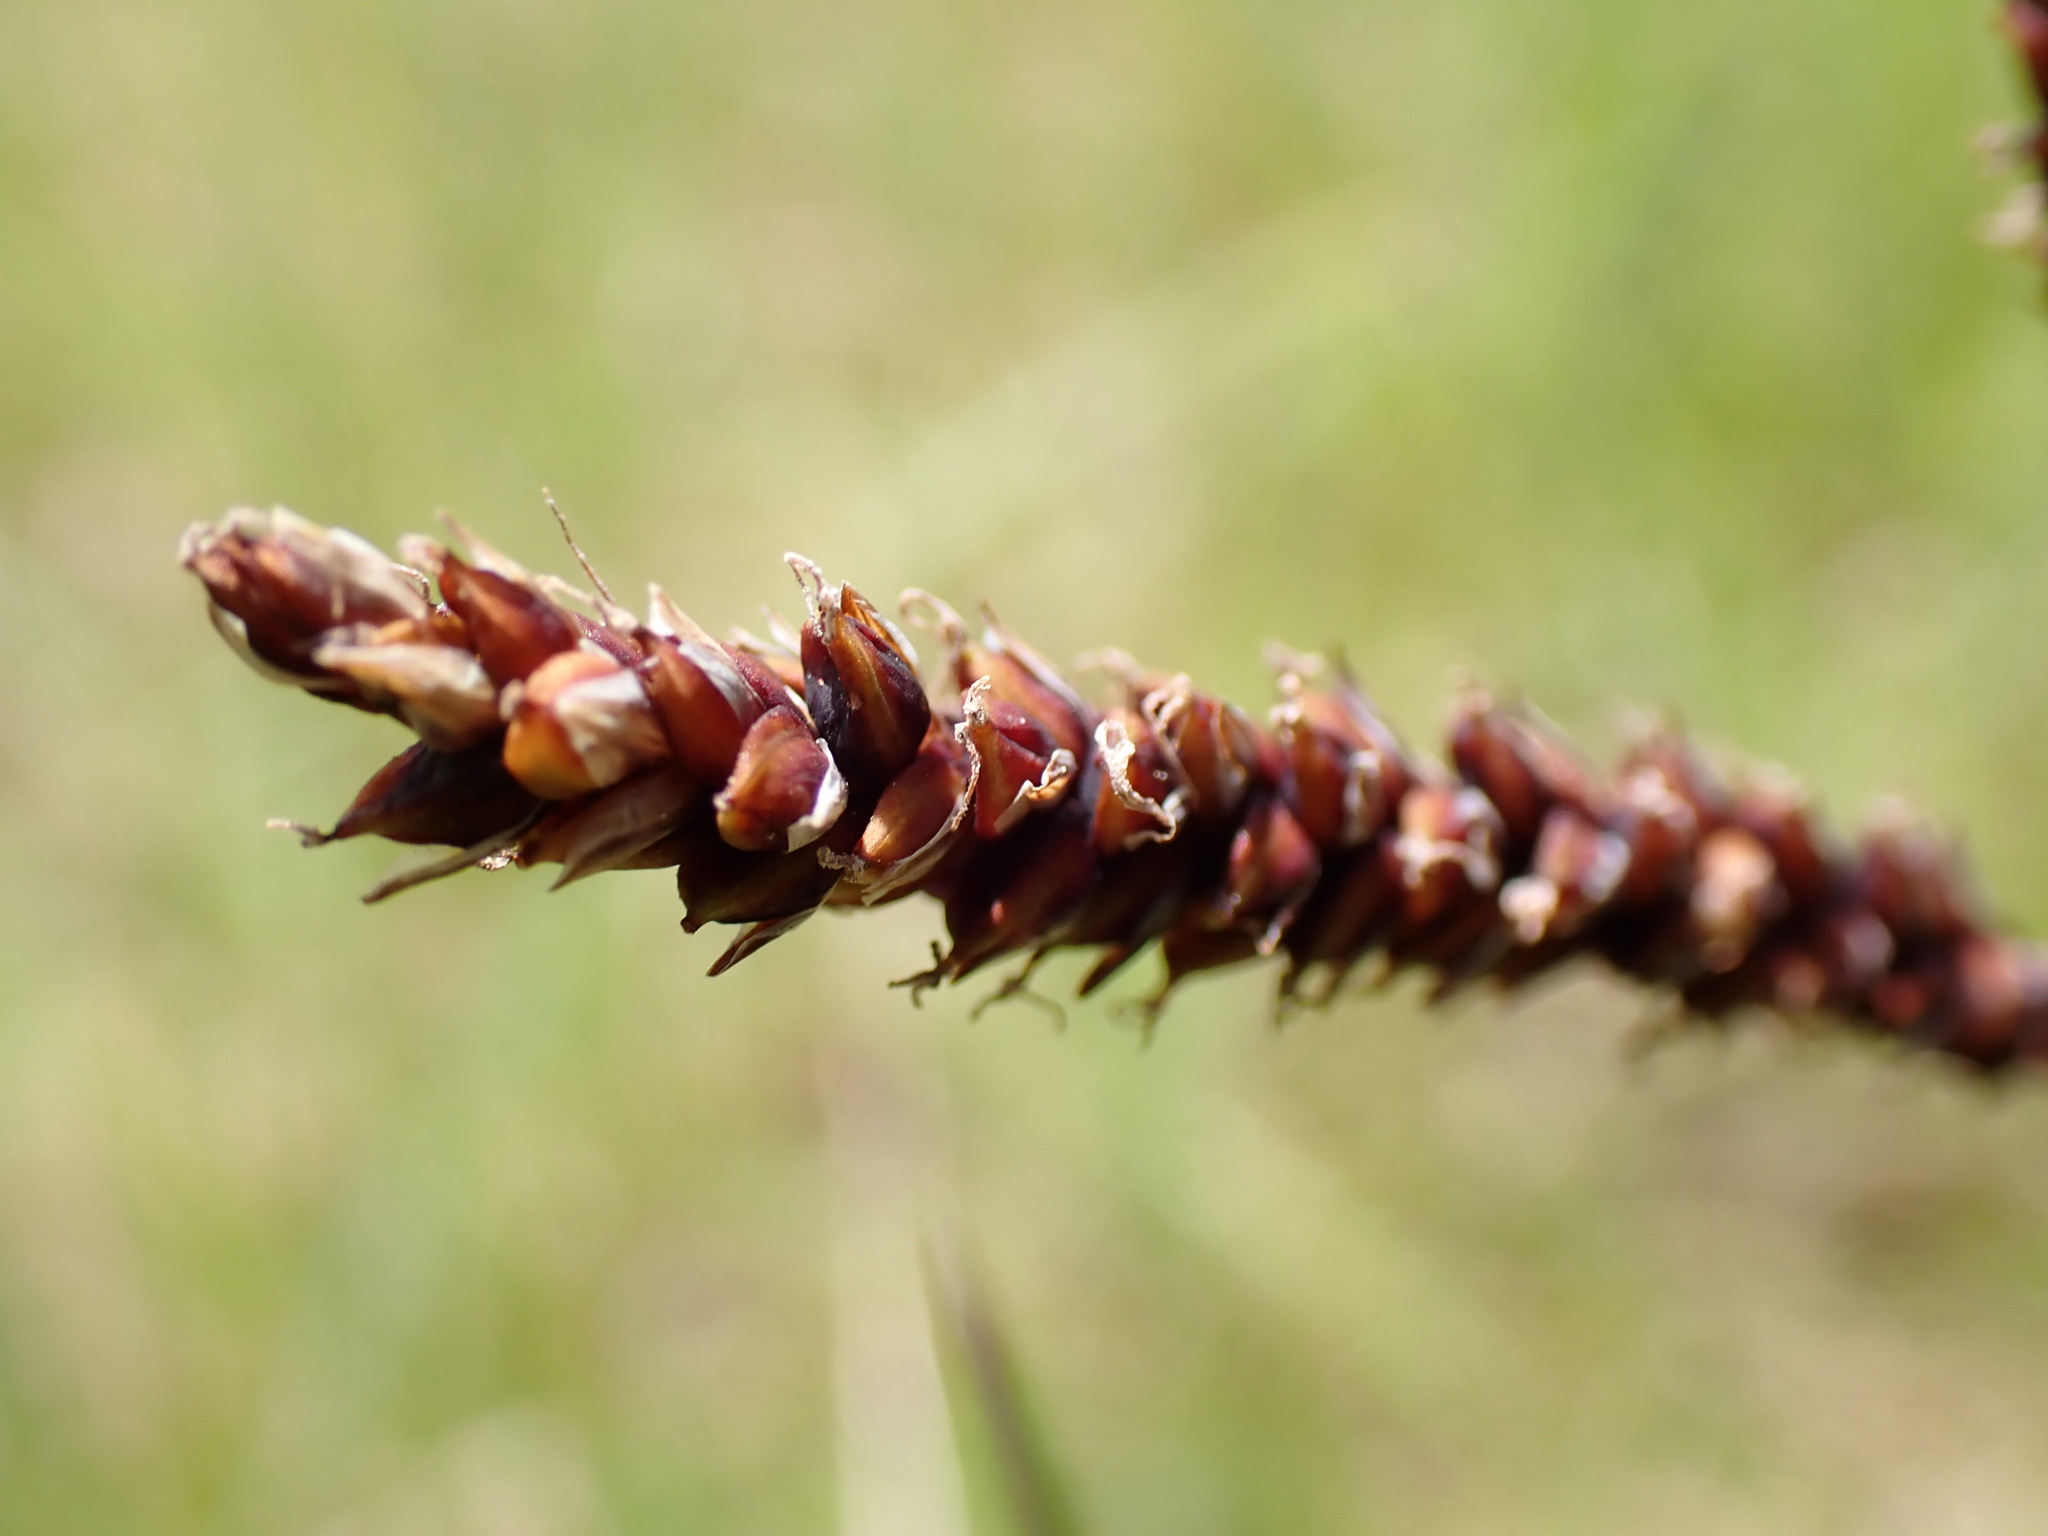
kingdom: Plantae
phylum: Tracheophyta
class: Liliopsida
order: Poales
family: Cyperaceae
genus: Carex
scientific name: Carex flacca
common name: Glaucous sedge
